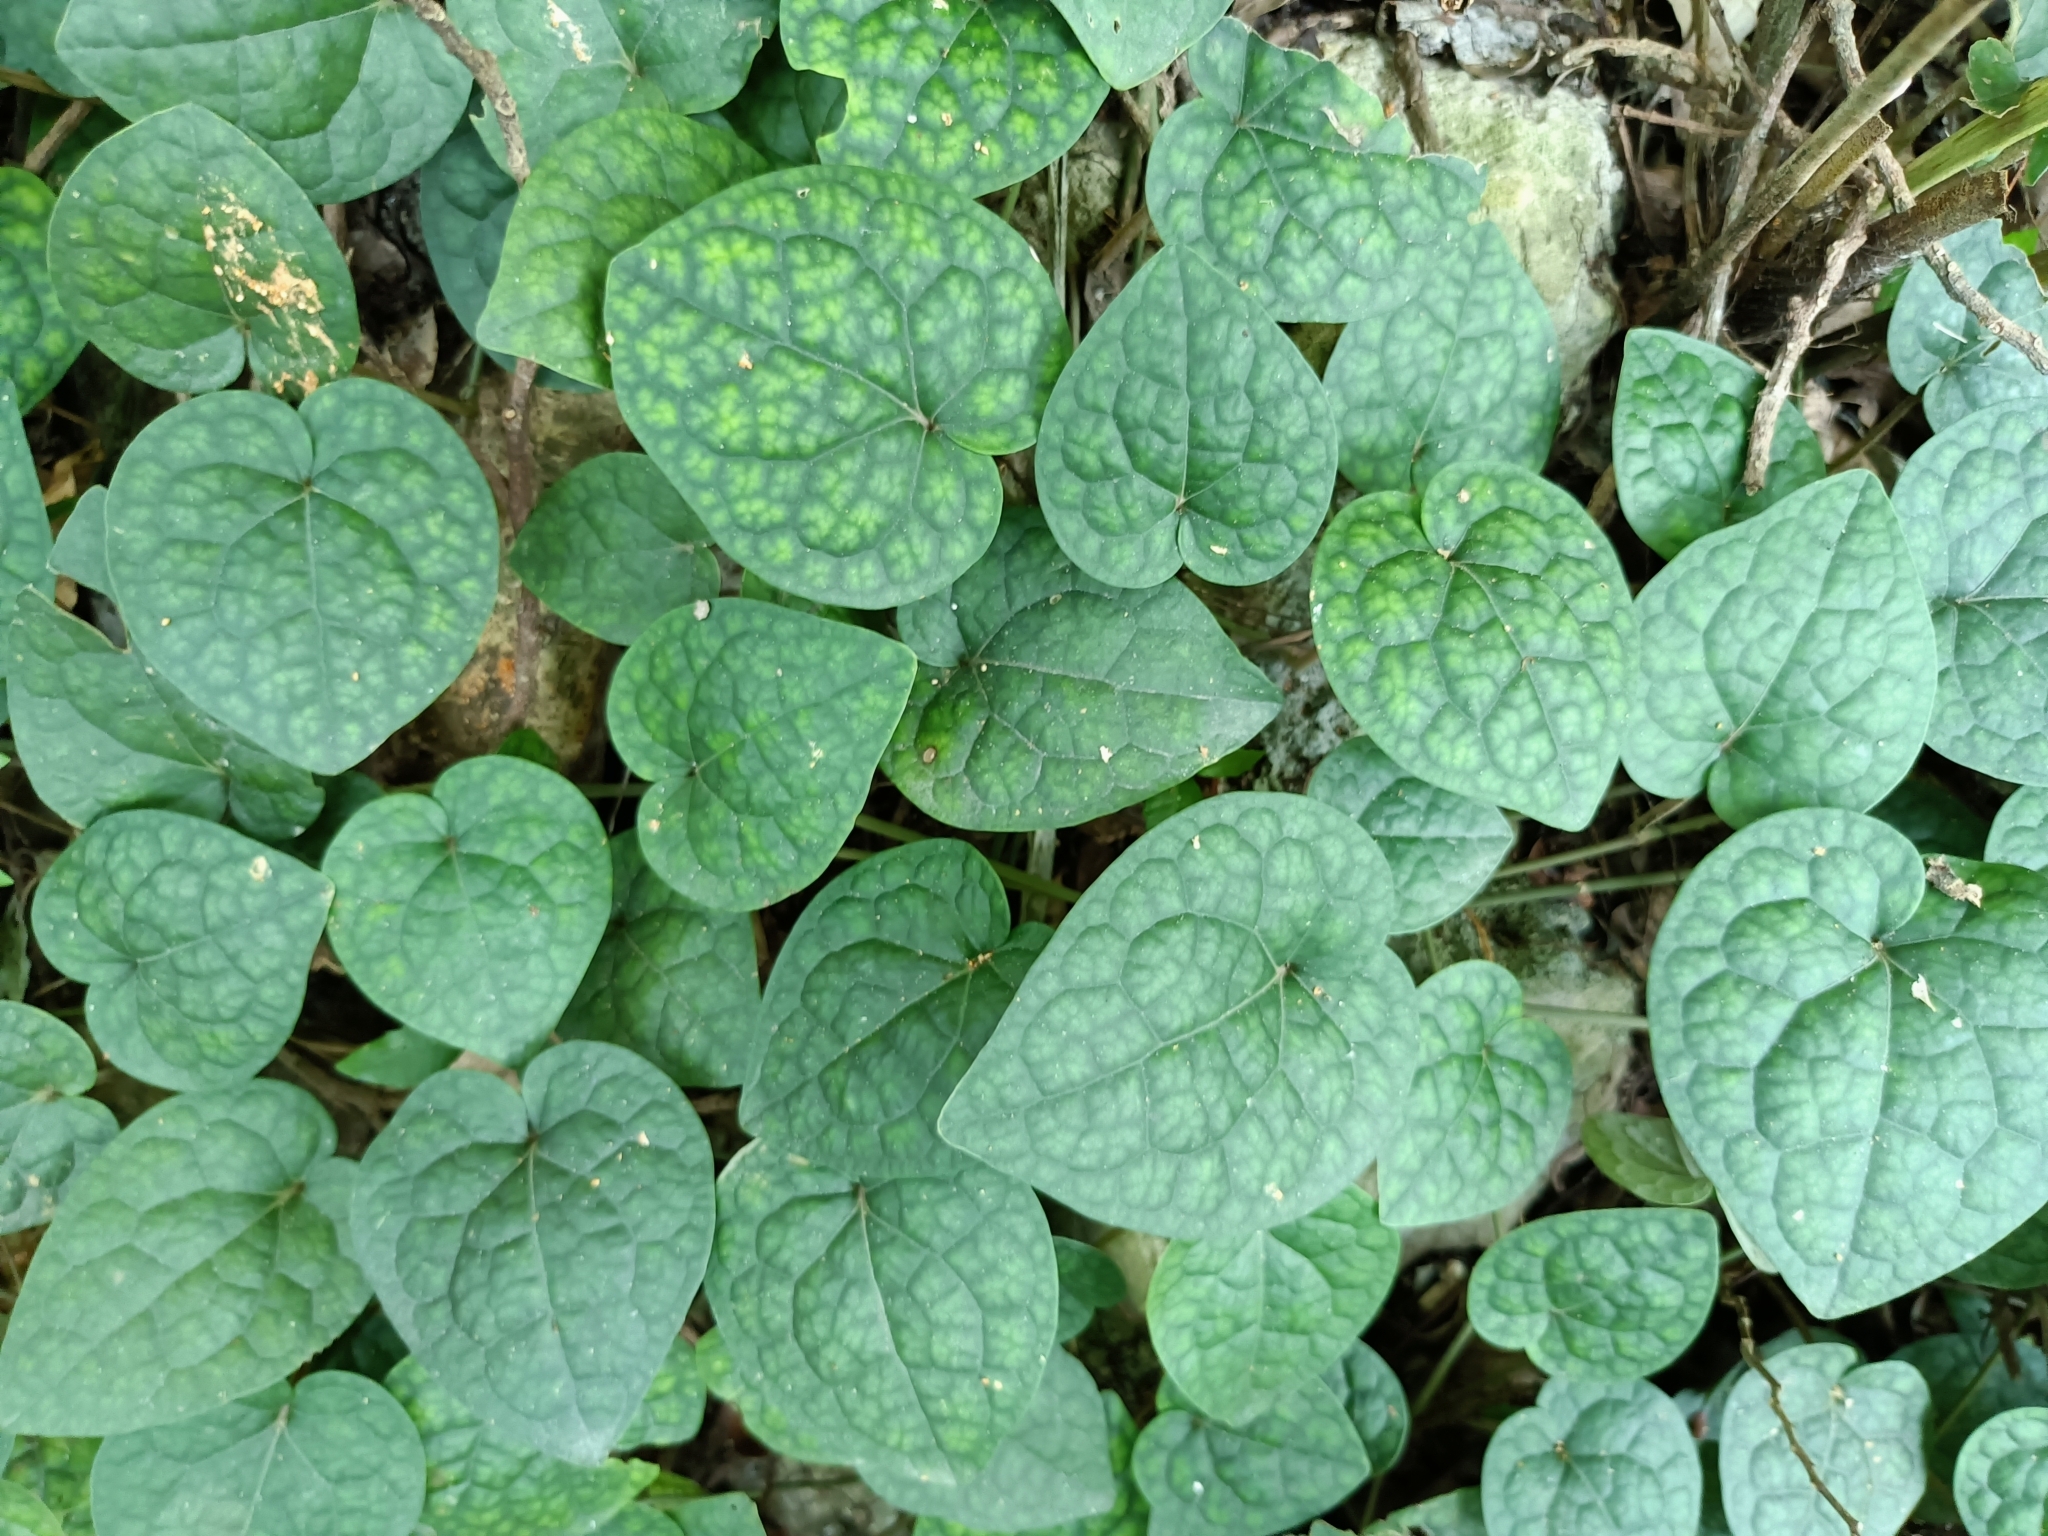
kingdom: Plantae
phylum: Tracheophyta
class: Magnoliopsida
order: Piperales
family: Piperaceae
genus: Piper
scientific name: Piper kadsura
